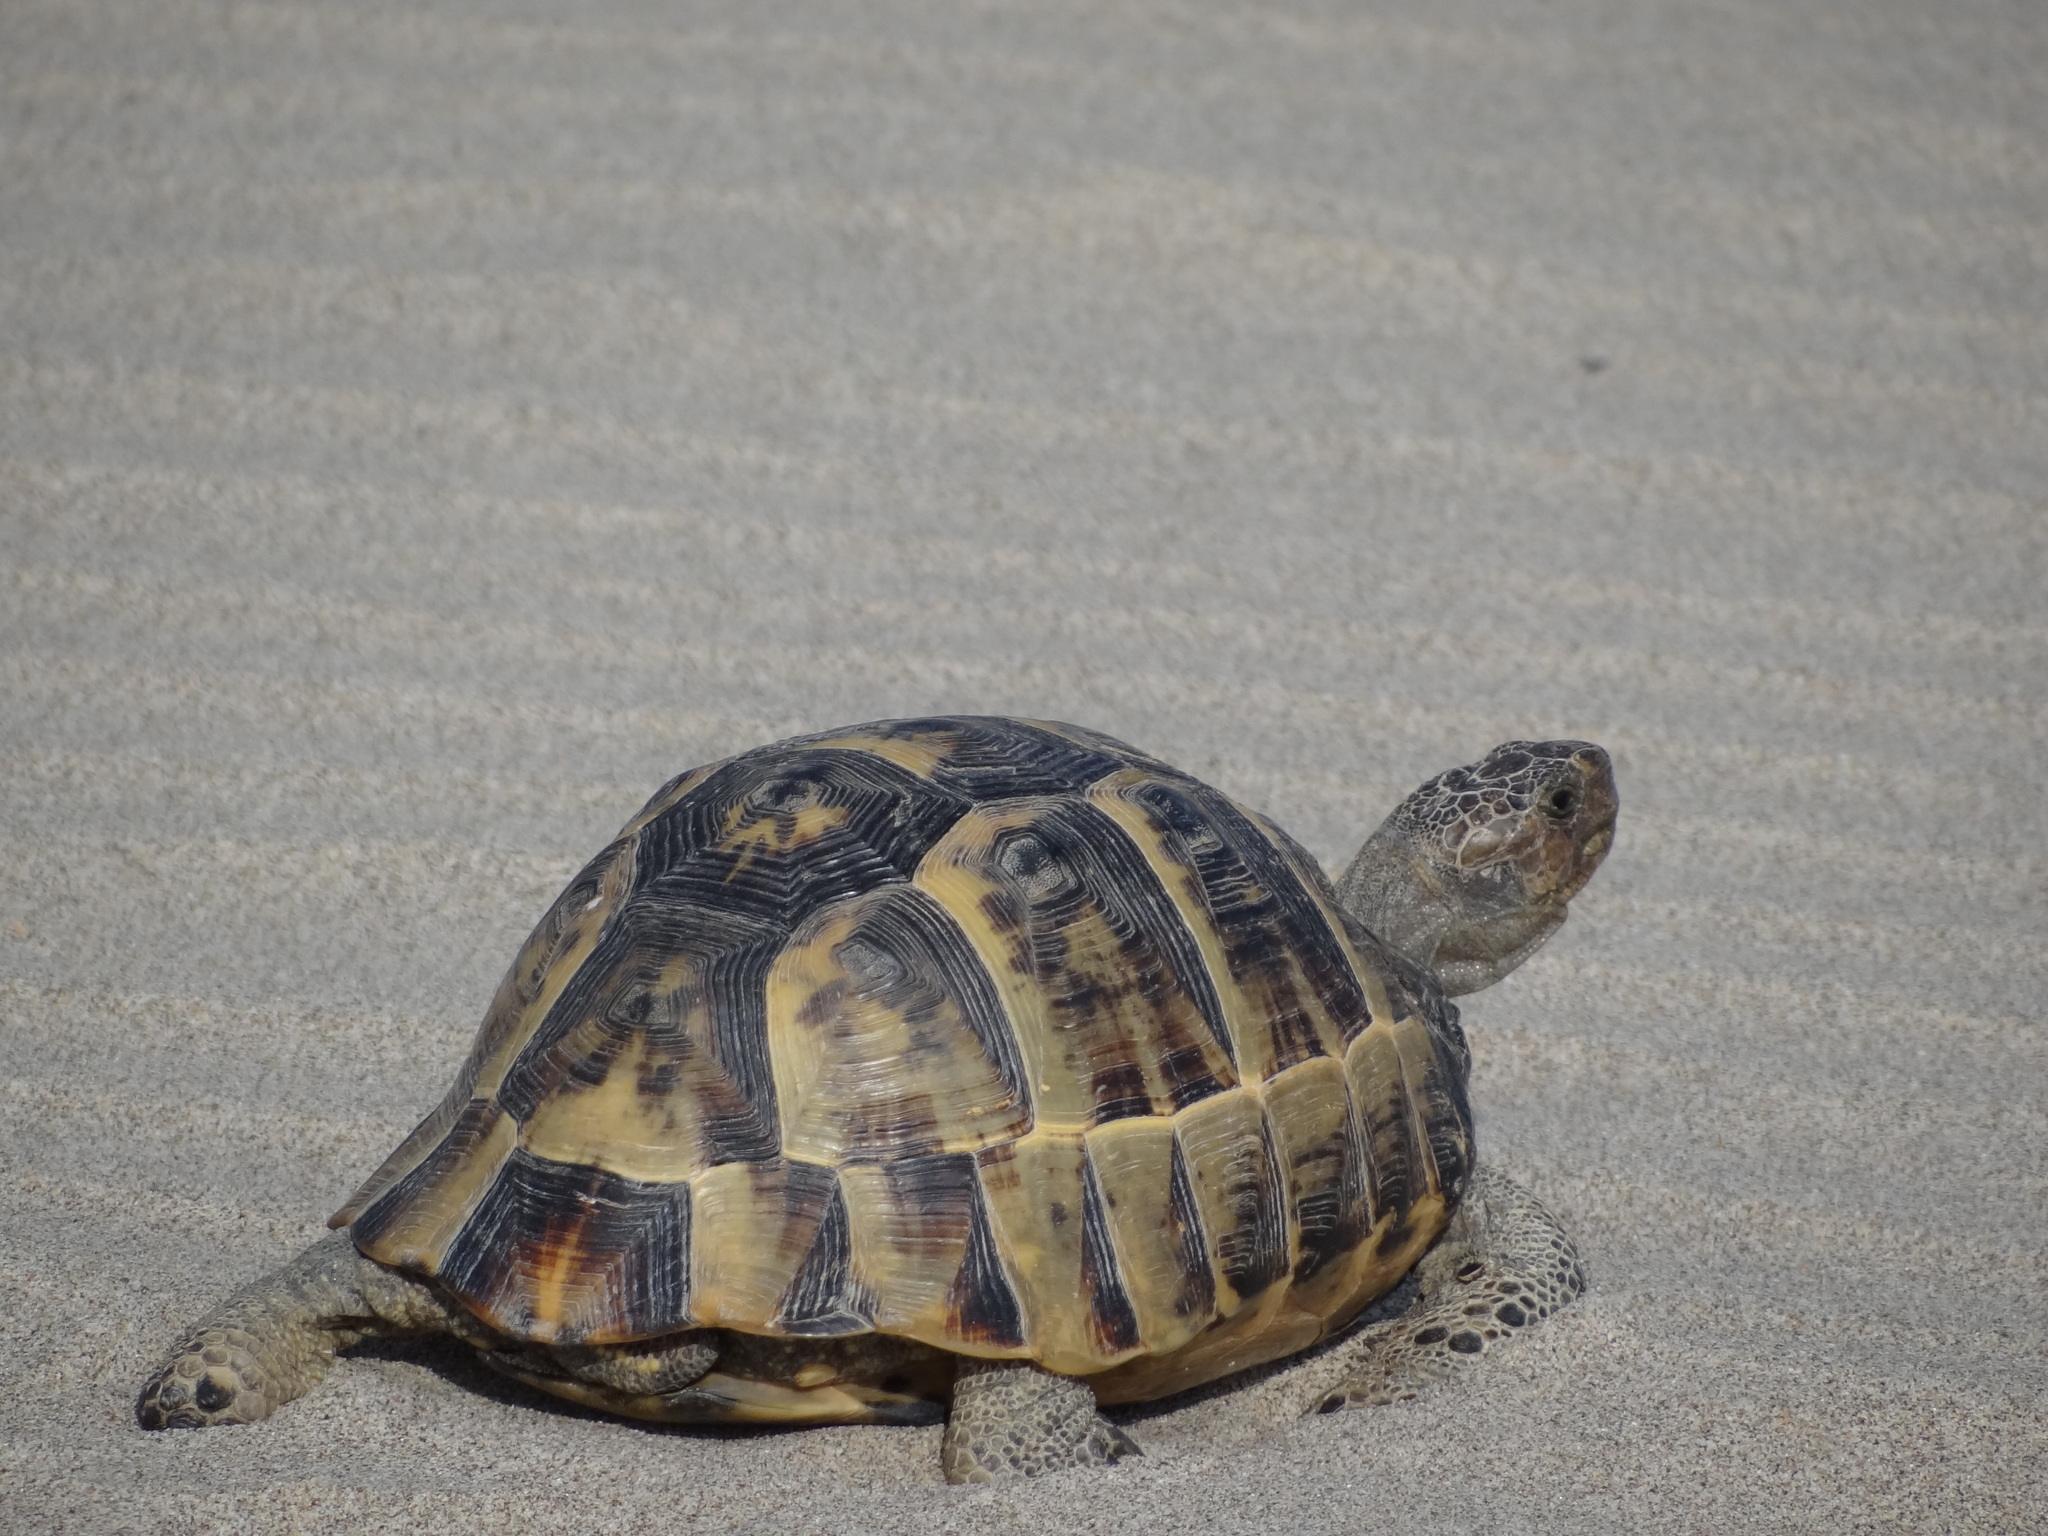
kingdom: Animalia
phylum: Chordata
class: Testudines
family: Testudinidae
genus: Testudo
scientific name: Testudo graeca
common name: Common tortoise
